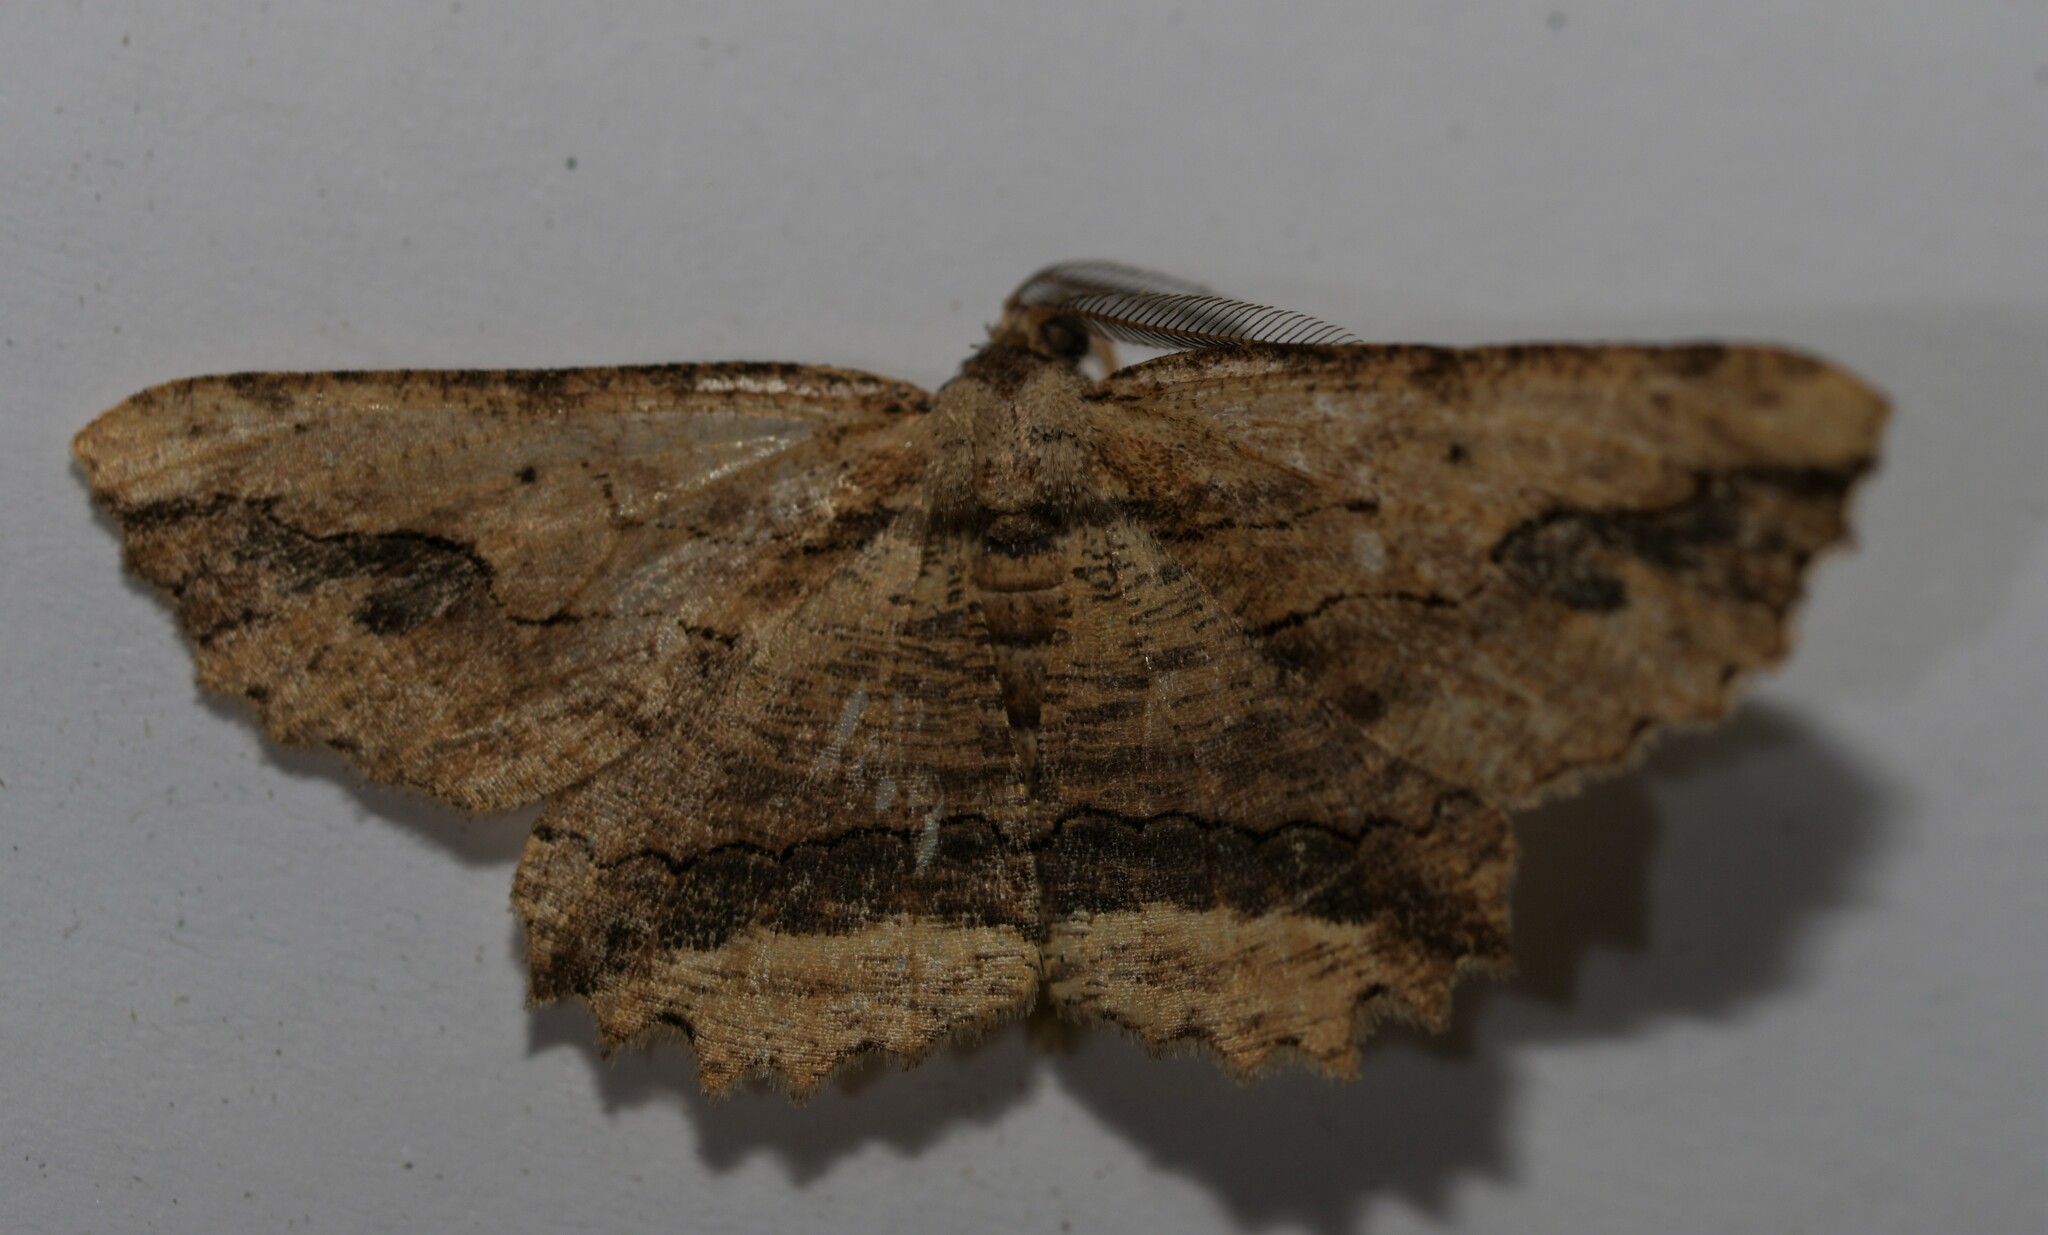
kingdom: Animalia
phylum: Arthropoda
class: Insecta
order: Lepidoptera
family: Geometridae
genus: Menophra
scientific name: Menophra abruptaria
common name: Waved umber
